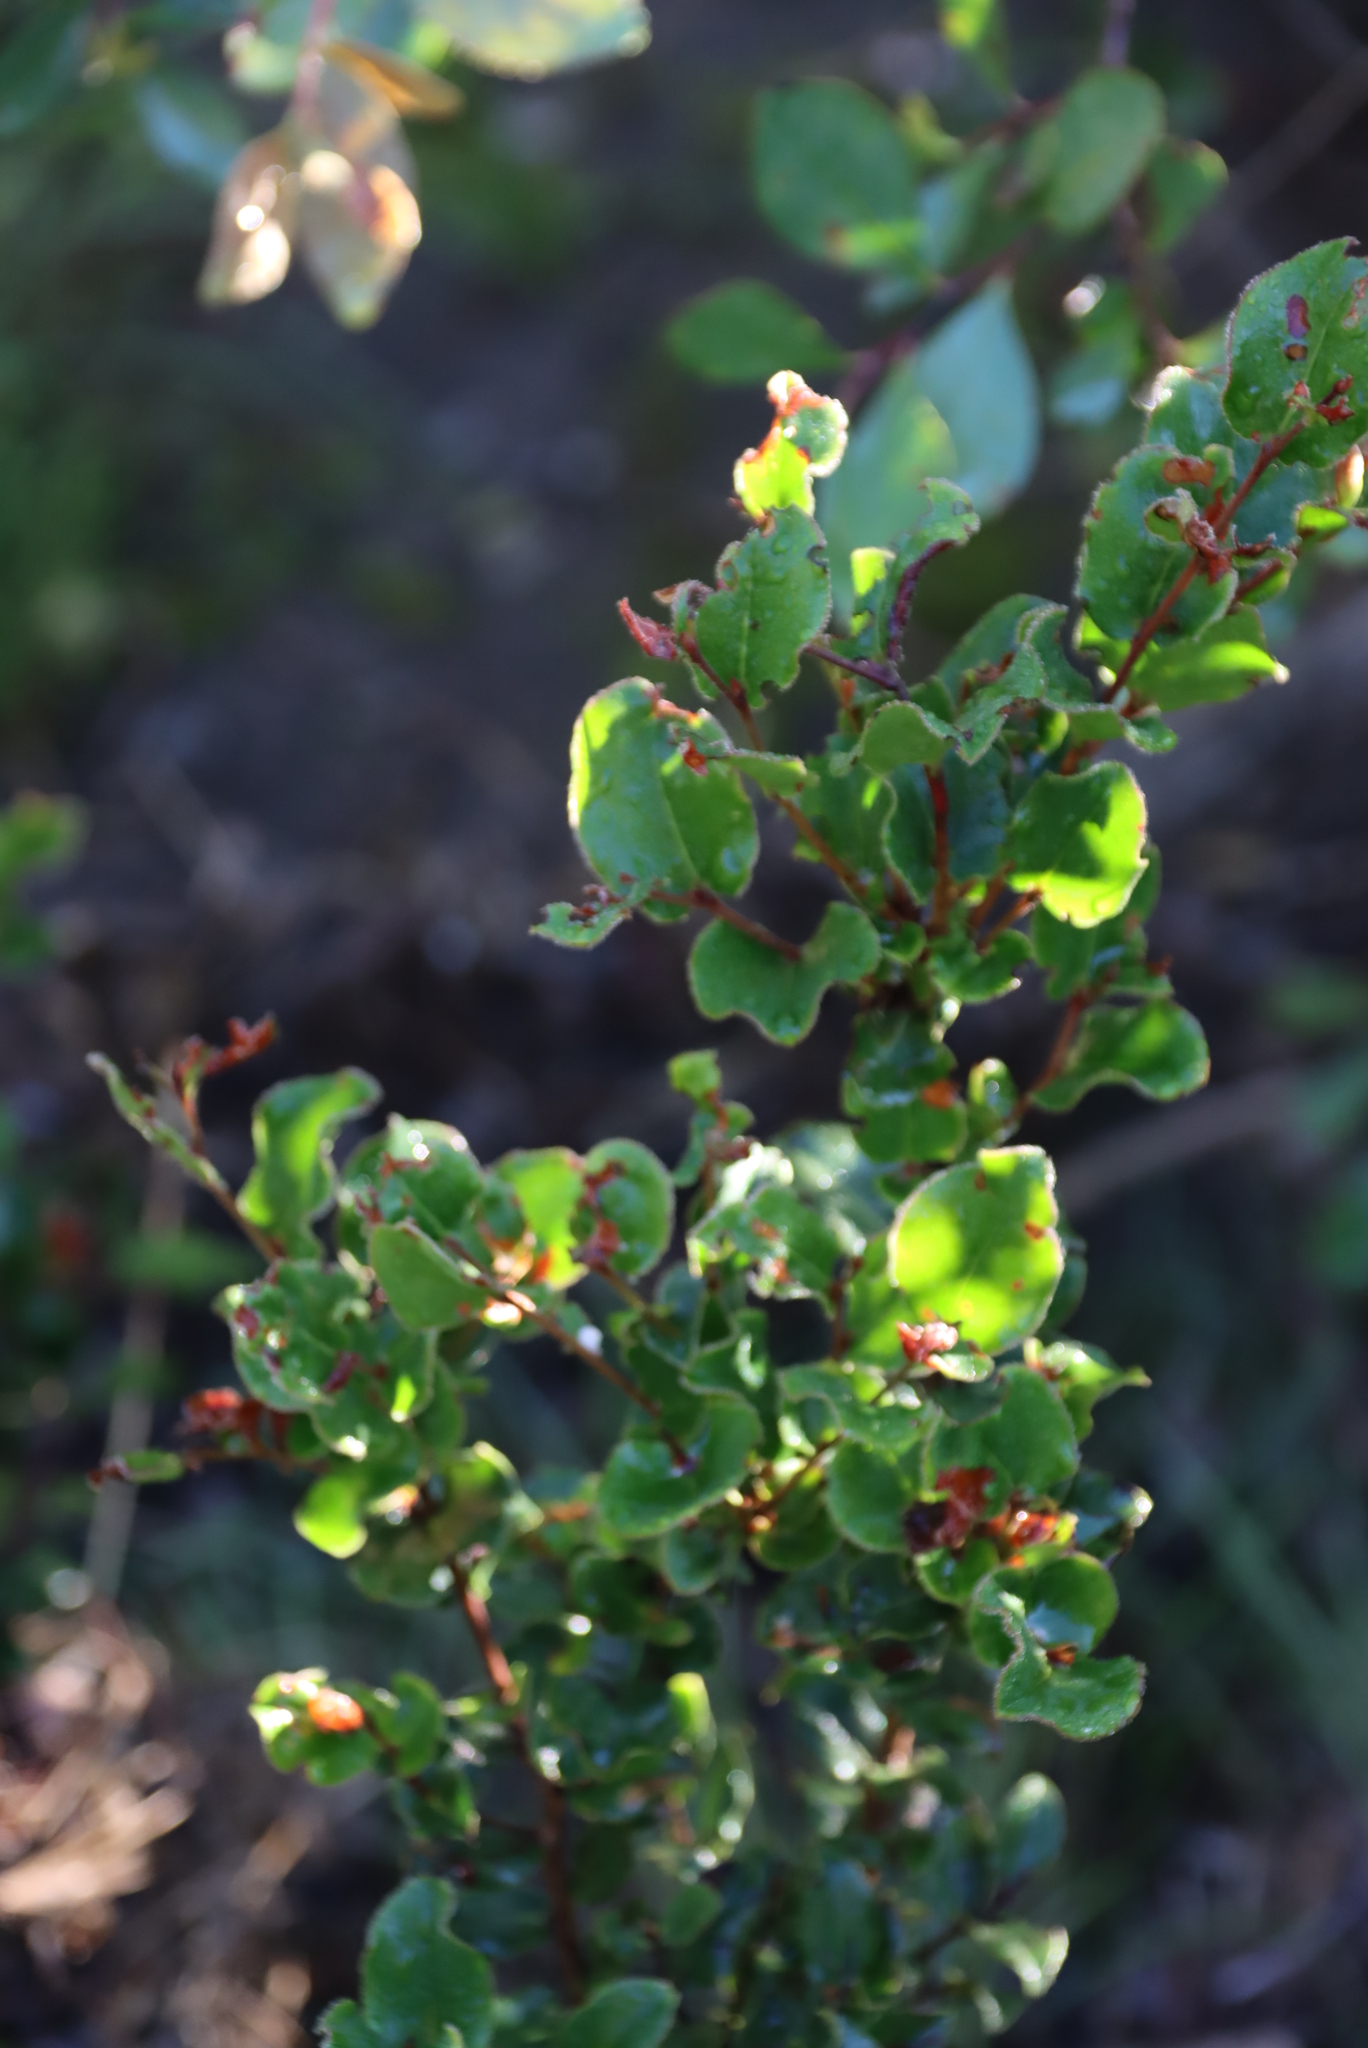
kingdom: Plantae
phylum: Tracheophyta
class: Magnoliopsida
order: Ericales
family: Primulaceae
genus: Myrsine
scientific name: Myrsine africana
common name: African-boxwood
